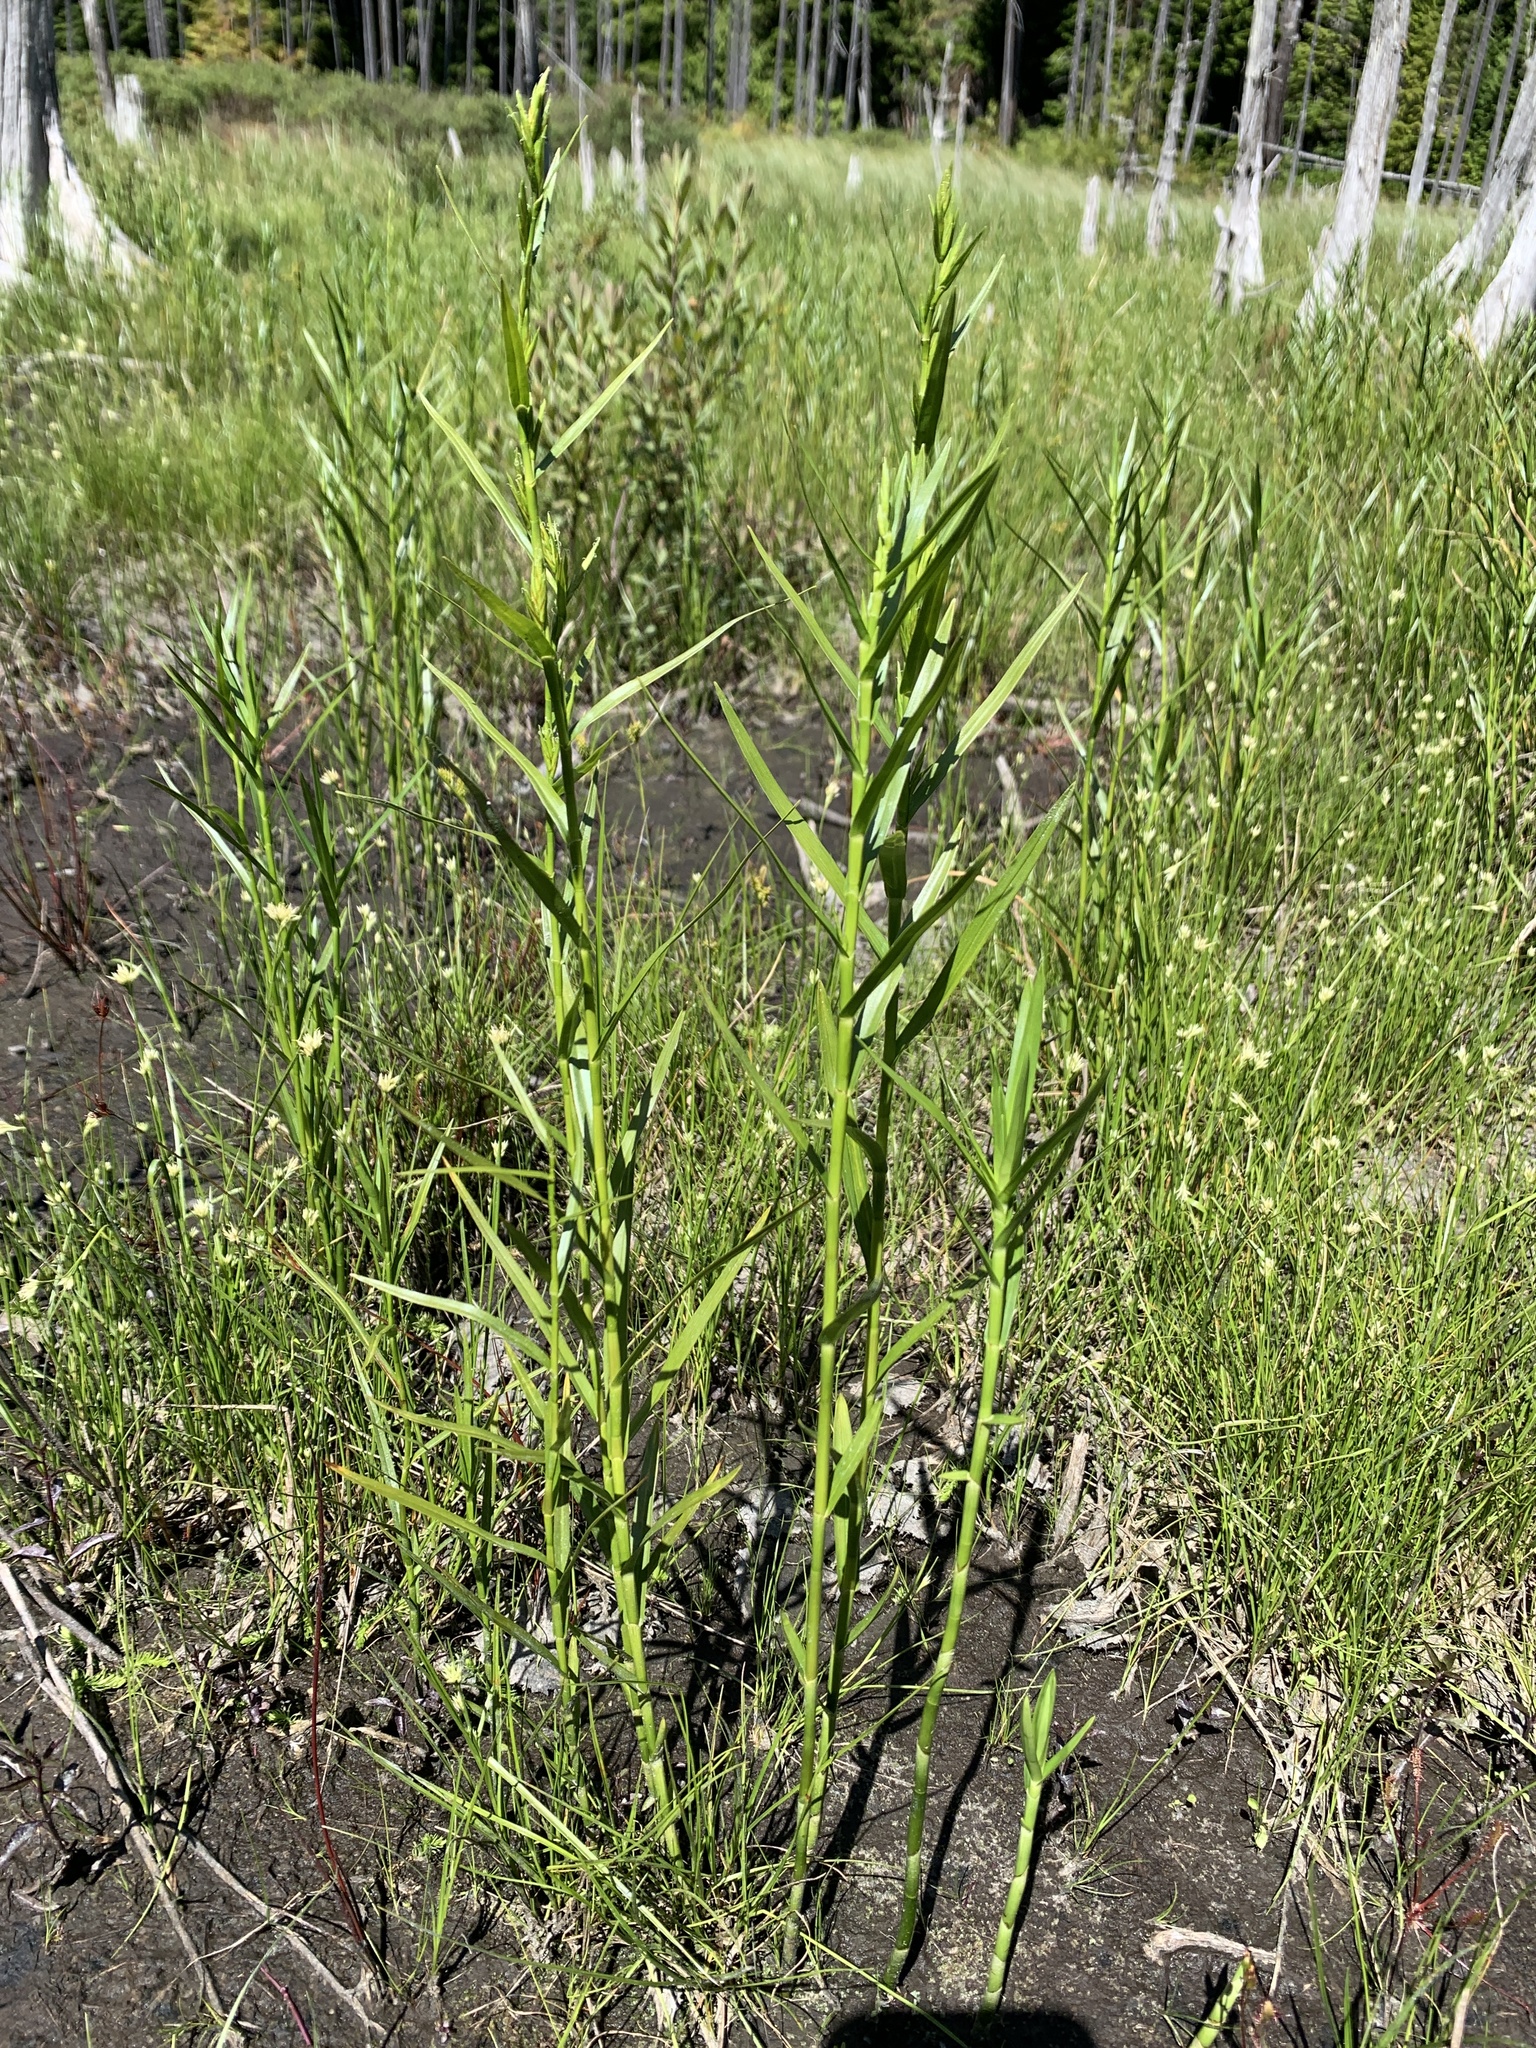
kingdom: Plantae
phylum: Tracheophyta
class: Liliopsida
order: Poales
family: Cyperaceae
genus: Dulichium
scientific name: Dulichium arundinaceum
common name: Three-way sedge
